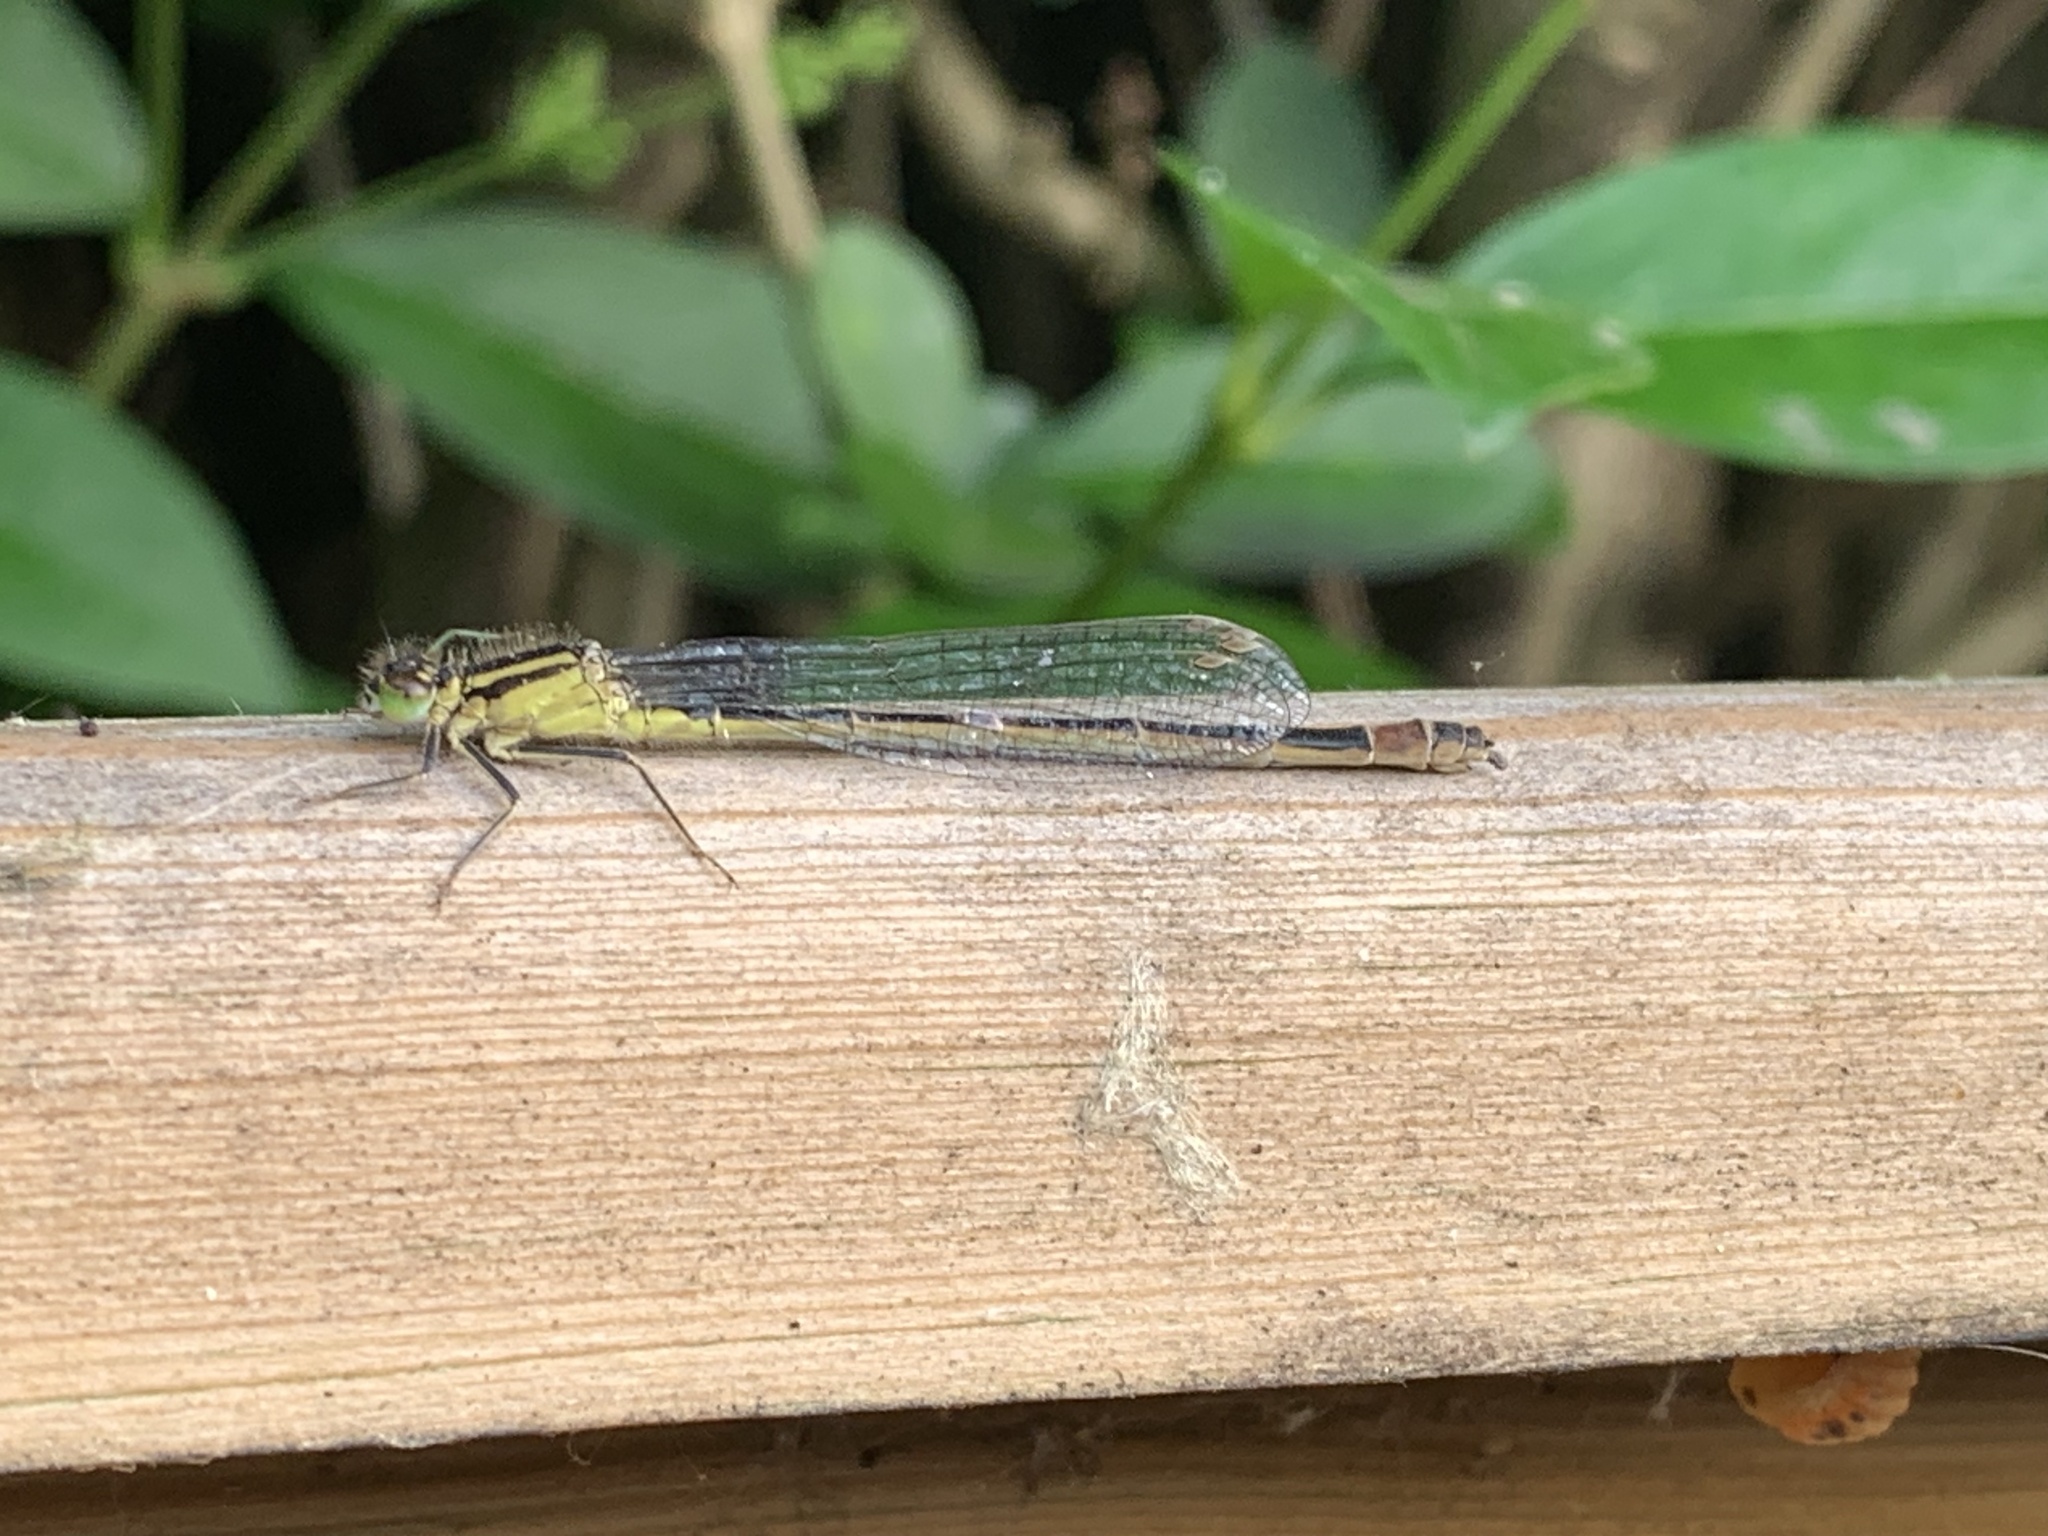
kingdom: Animalia
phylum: Arthropoda
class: Insecta
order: Odonata
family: Coenagrionidae
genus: Ischnura
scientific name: Ischnura elegans
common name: Blue-tailed damselfly
